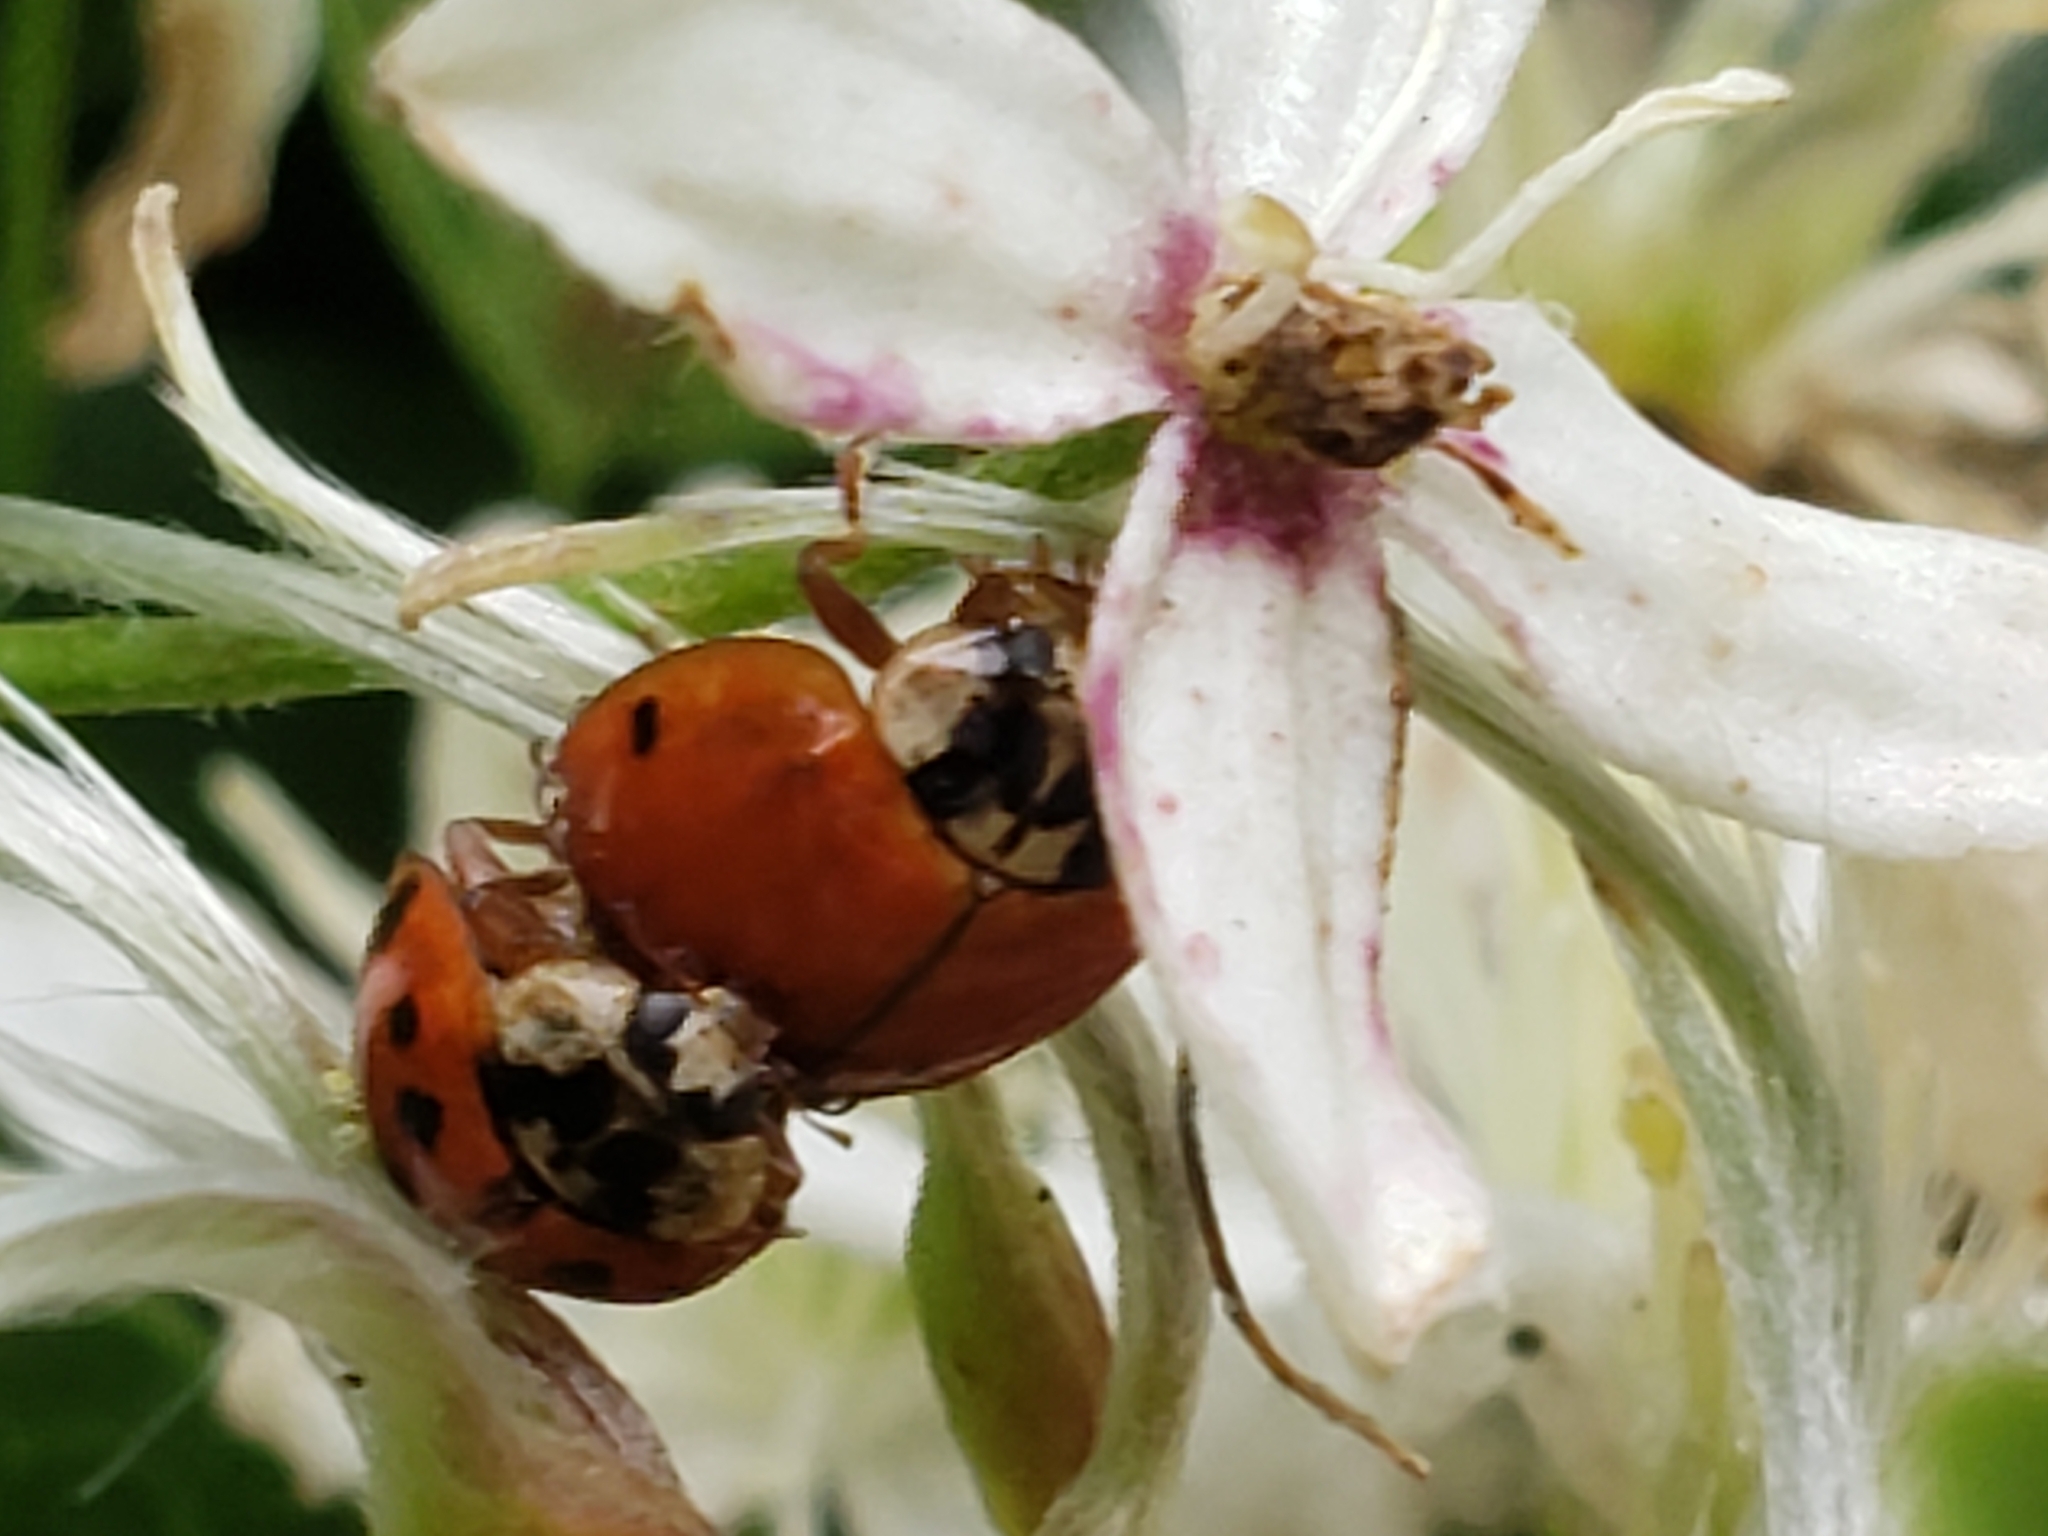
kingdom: Animalia
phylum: Arthropoda
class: Insecta
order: Coleoptera
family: Coccinellidae
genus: Harmonia
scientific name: Harmonia axyridis
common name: Harlequin ladybird
